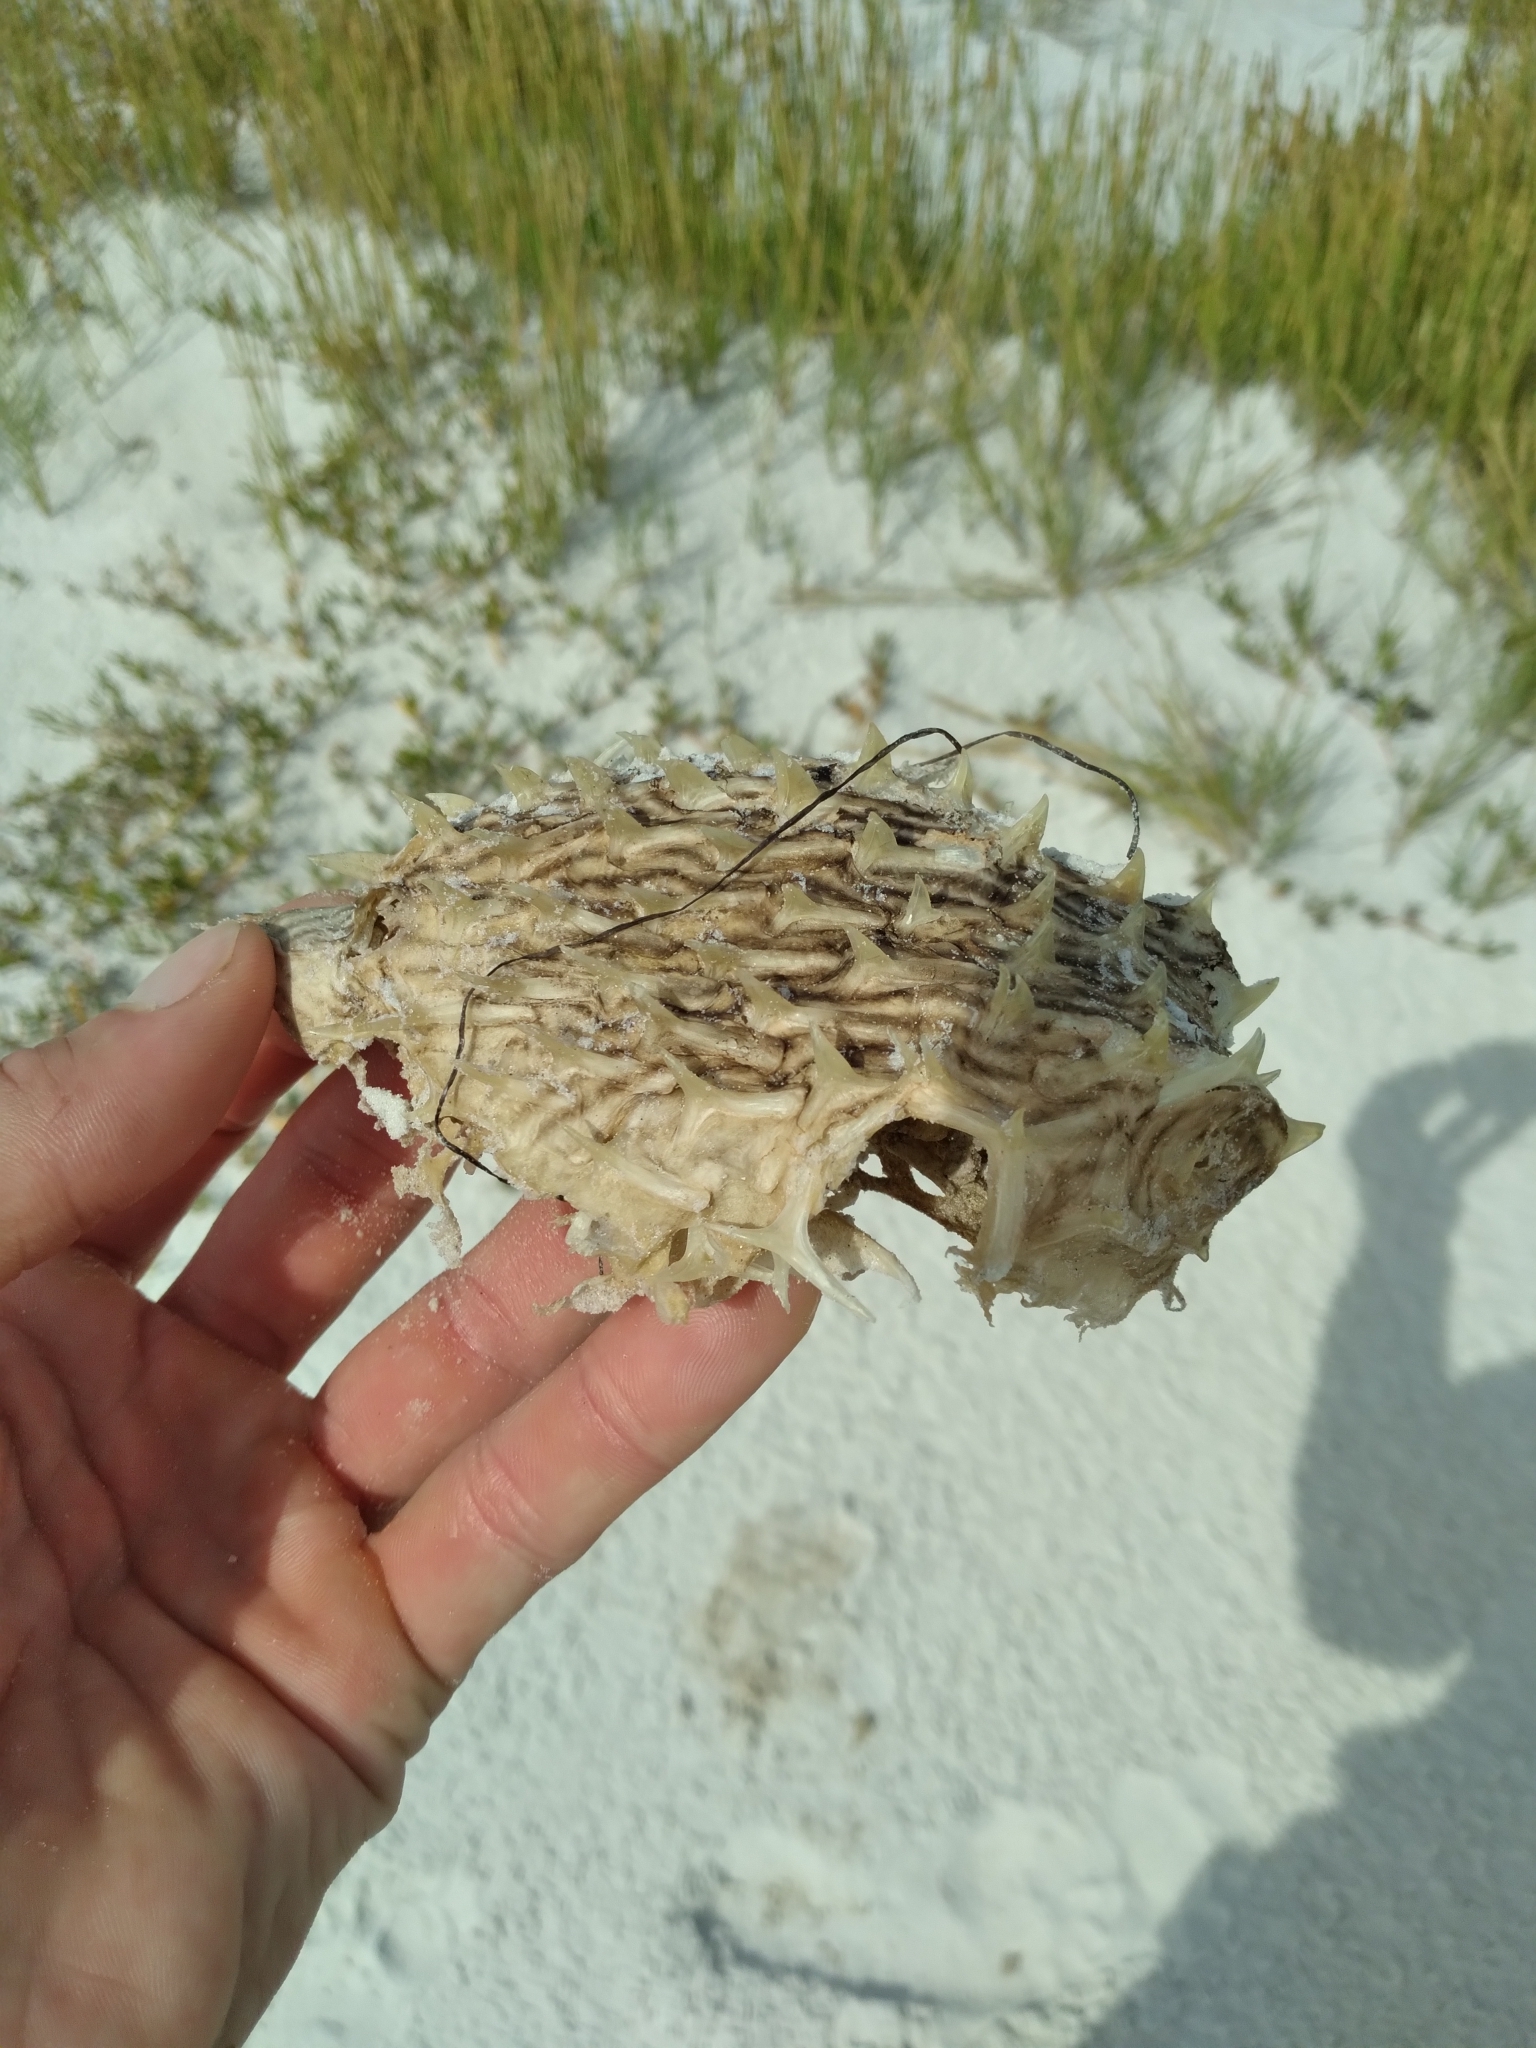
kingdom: Animalia
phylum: Chordata
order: Tetraodontiformes
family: Diodontidae
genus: Chilomycterus
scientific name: Chilomycterus schoepfii
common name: Striped burrfish
